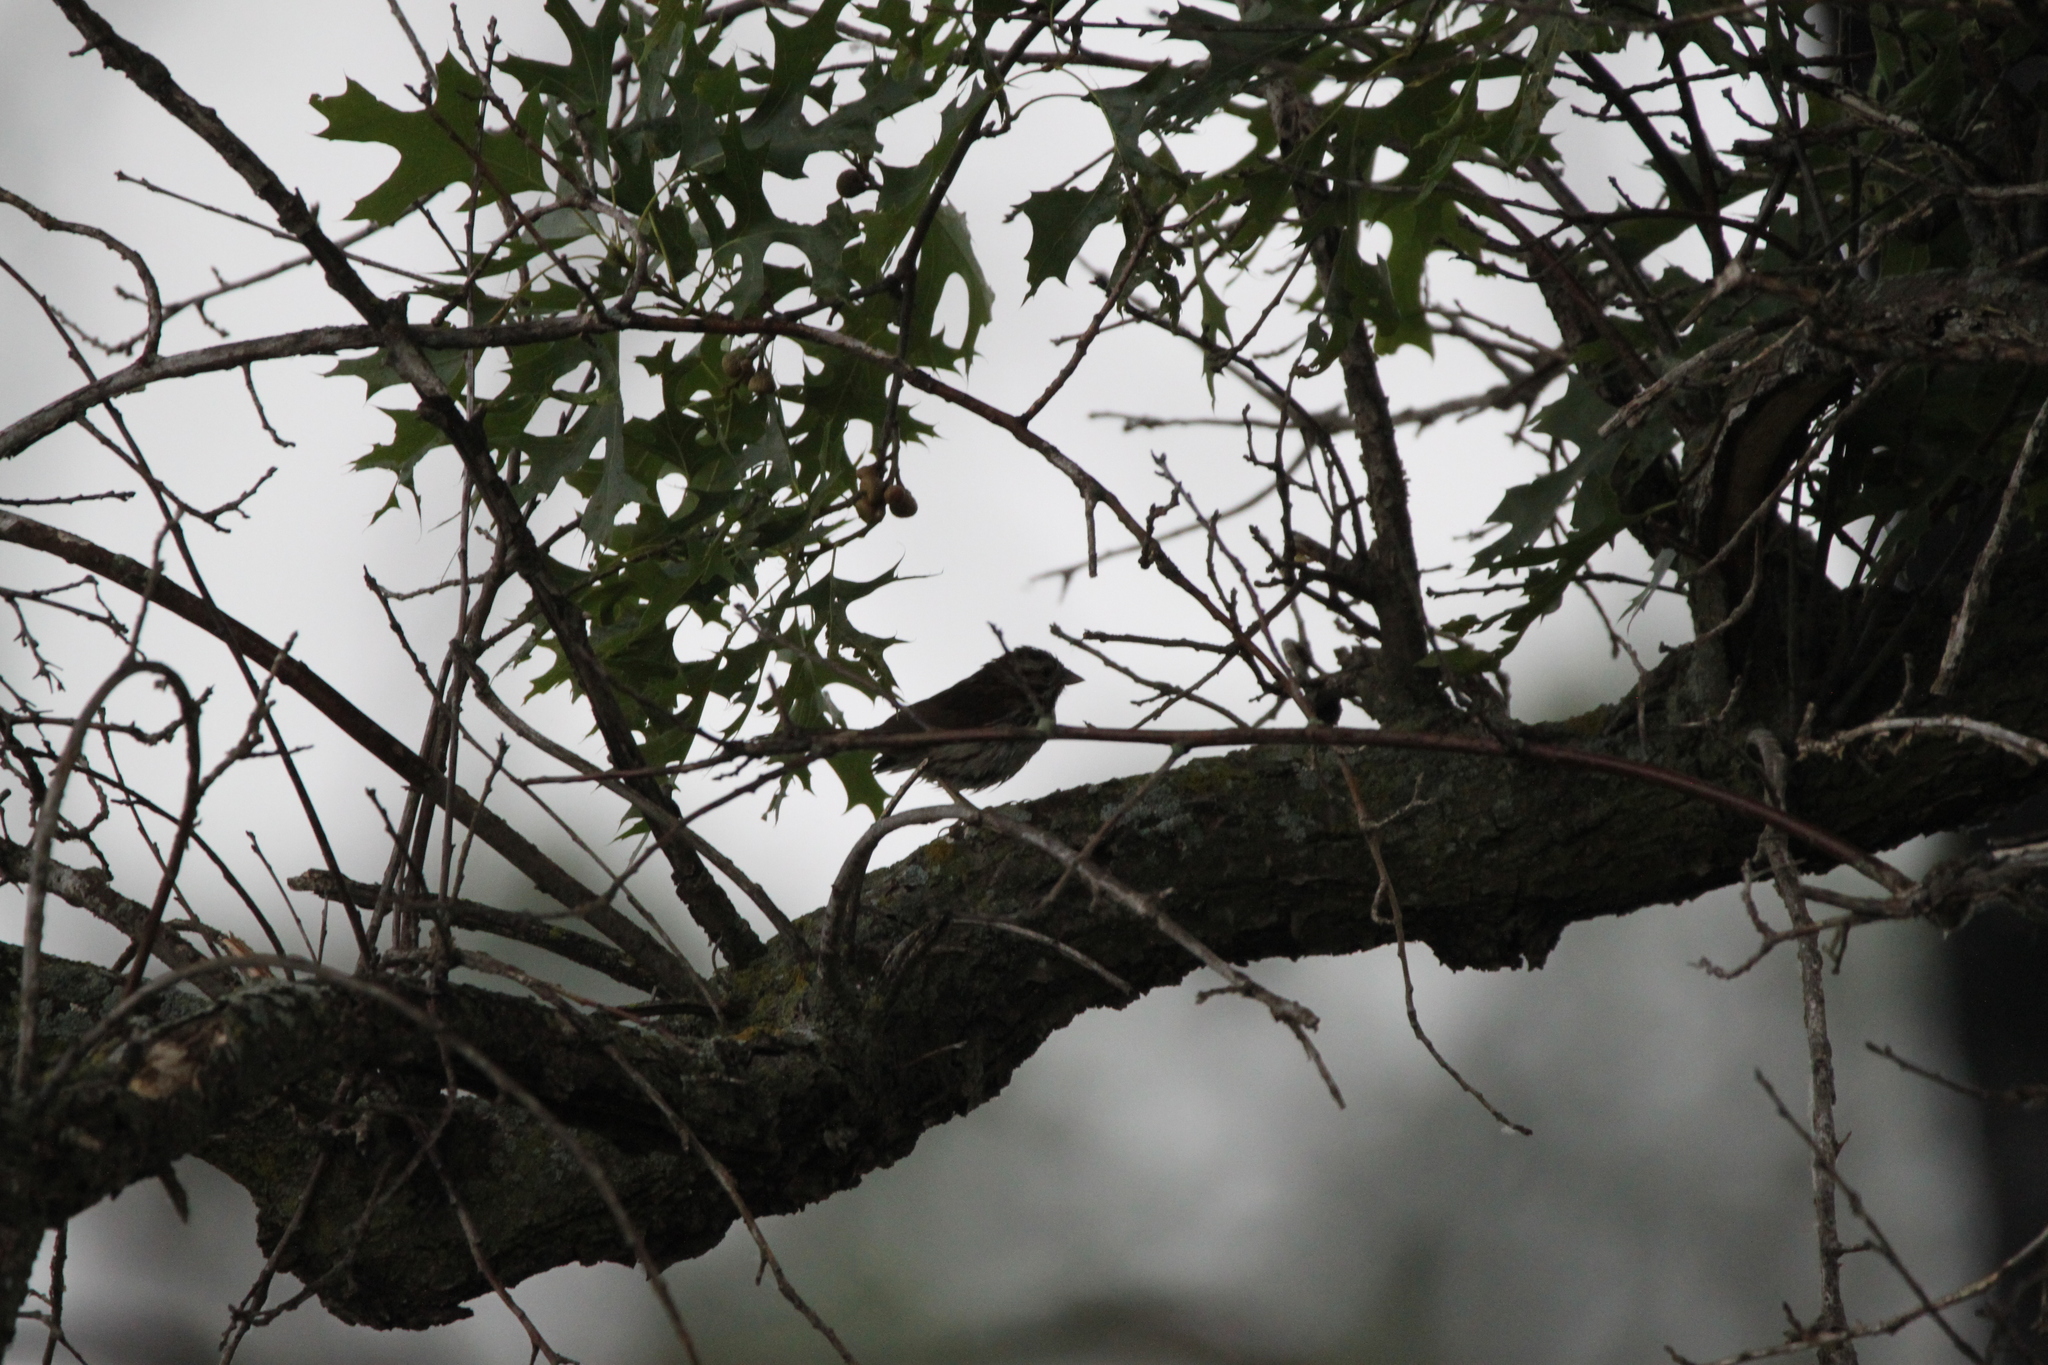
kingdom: Animalia
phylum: Chordata
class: Aves
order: Passeriformes
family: Passerellidae
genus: Melospiza
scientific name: Melospiza melodia
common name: Song sparrow
